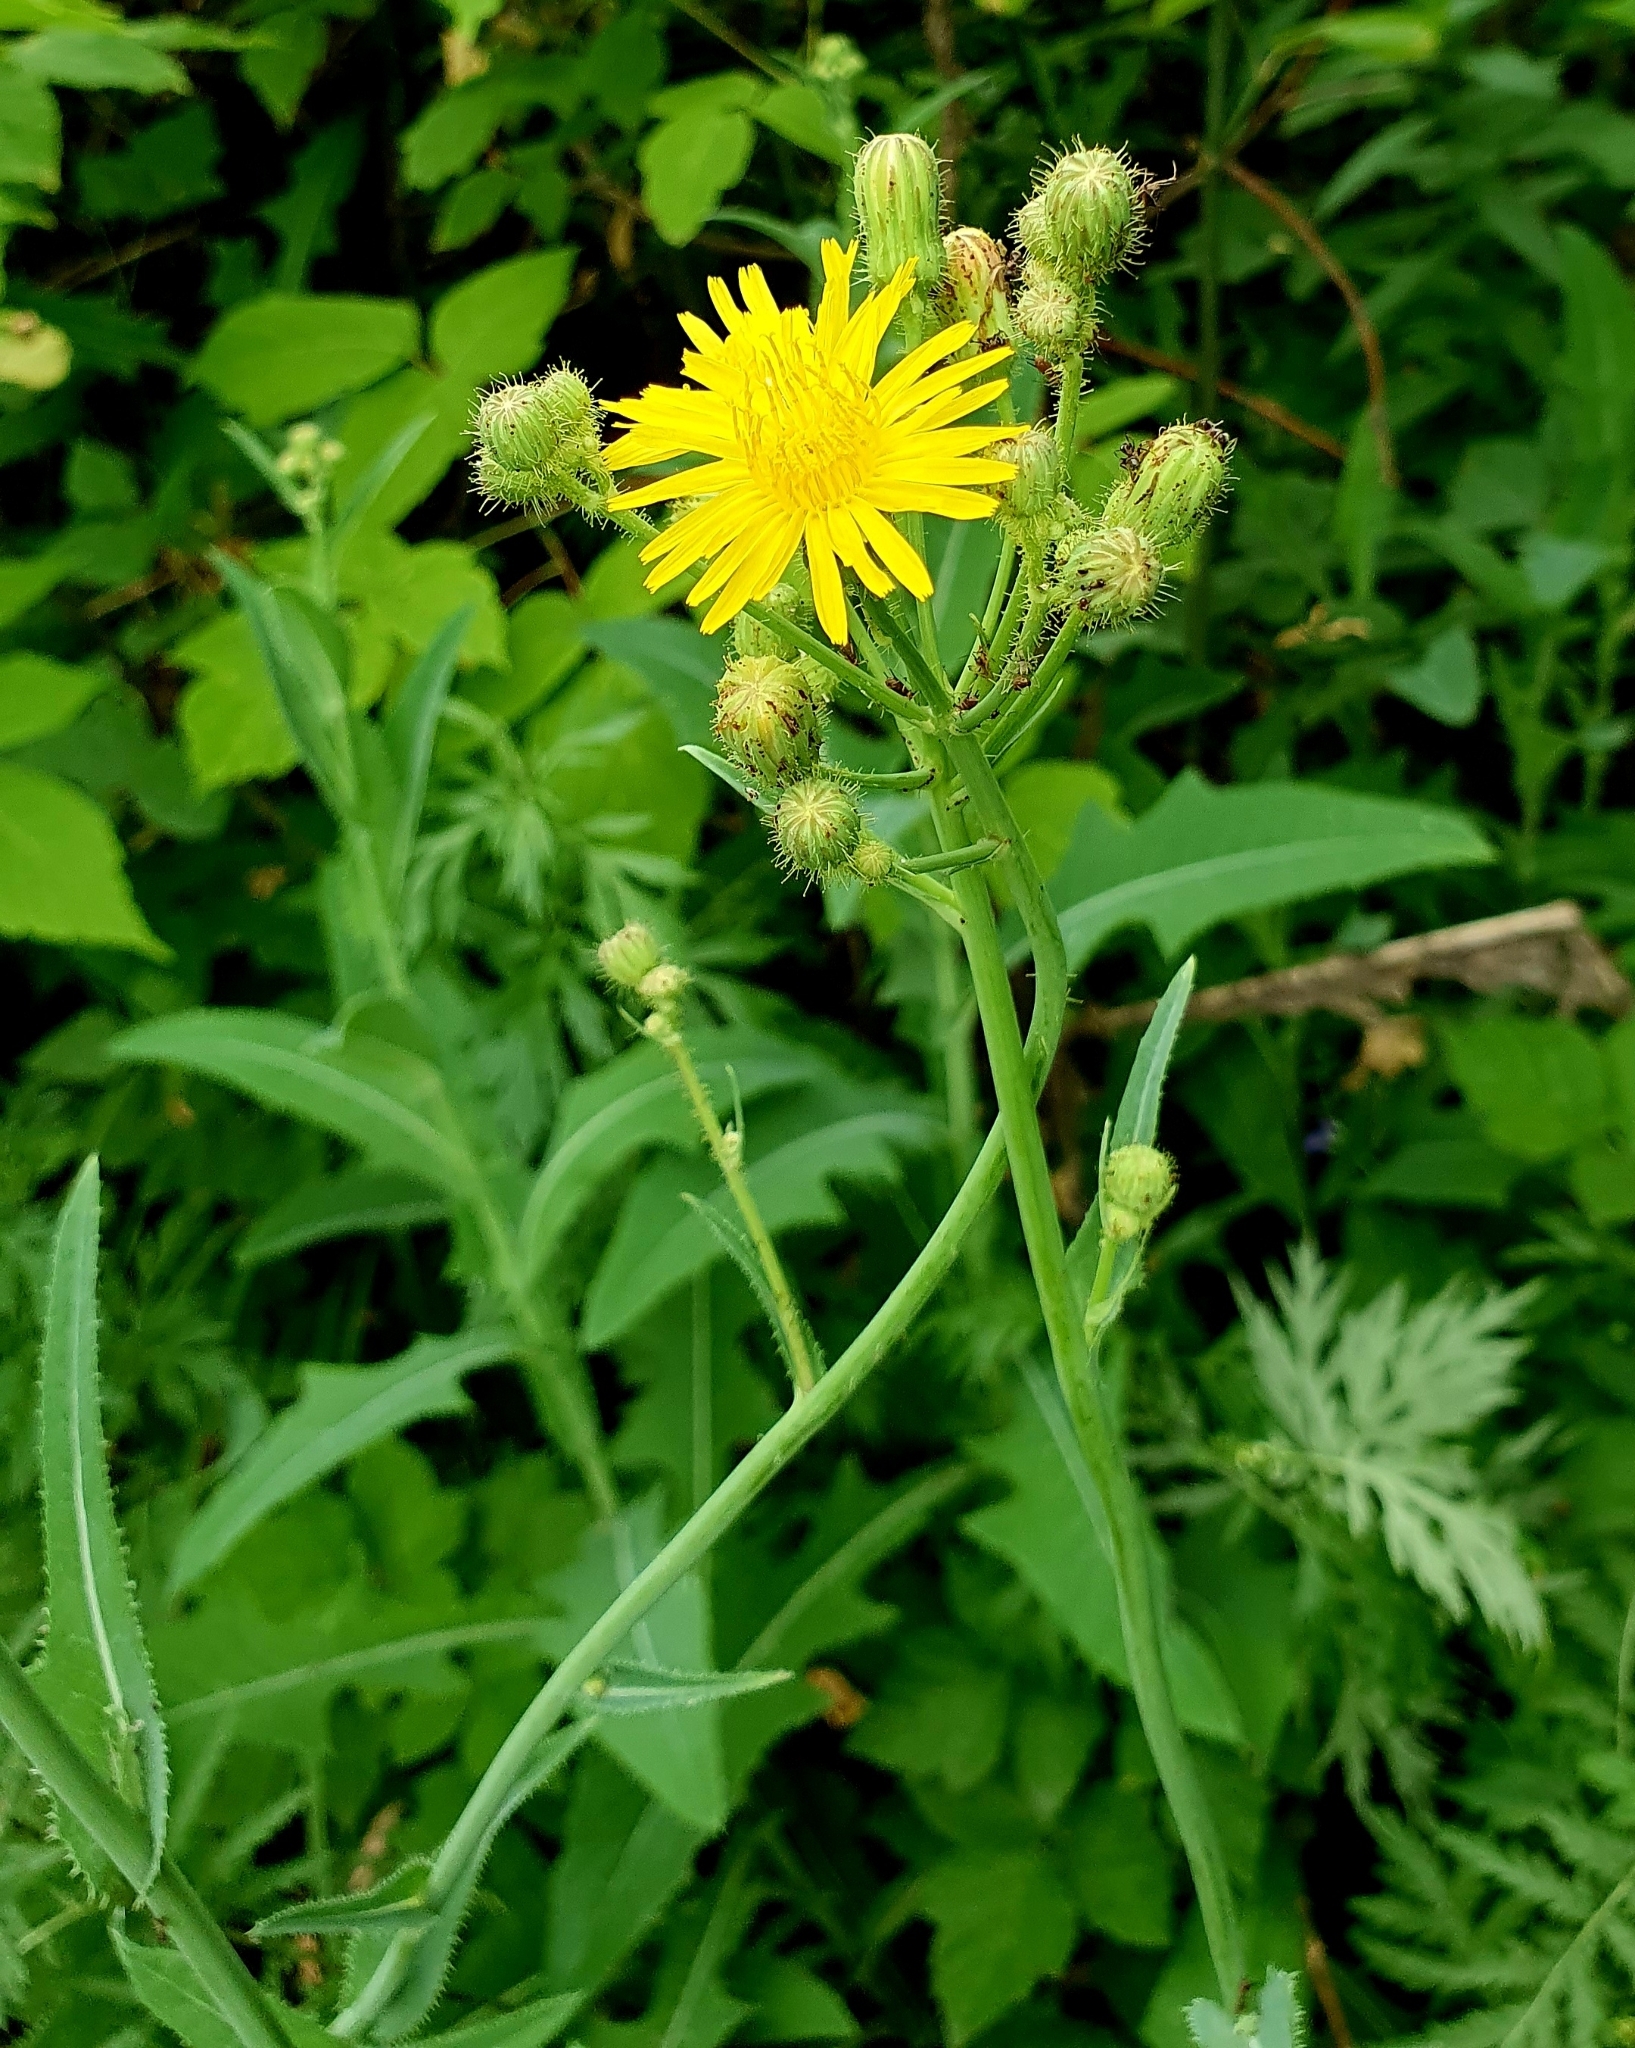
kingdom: Plantae
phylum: Tracheophyta
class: Magnoliopsida
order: Asterales
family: Asteraceae
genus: Sonchus
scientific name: Sonchus arvensis
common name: Perennial sow-thistle
